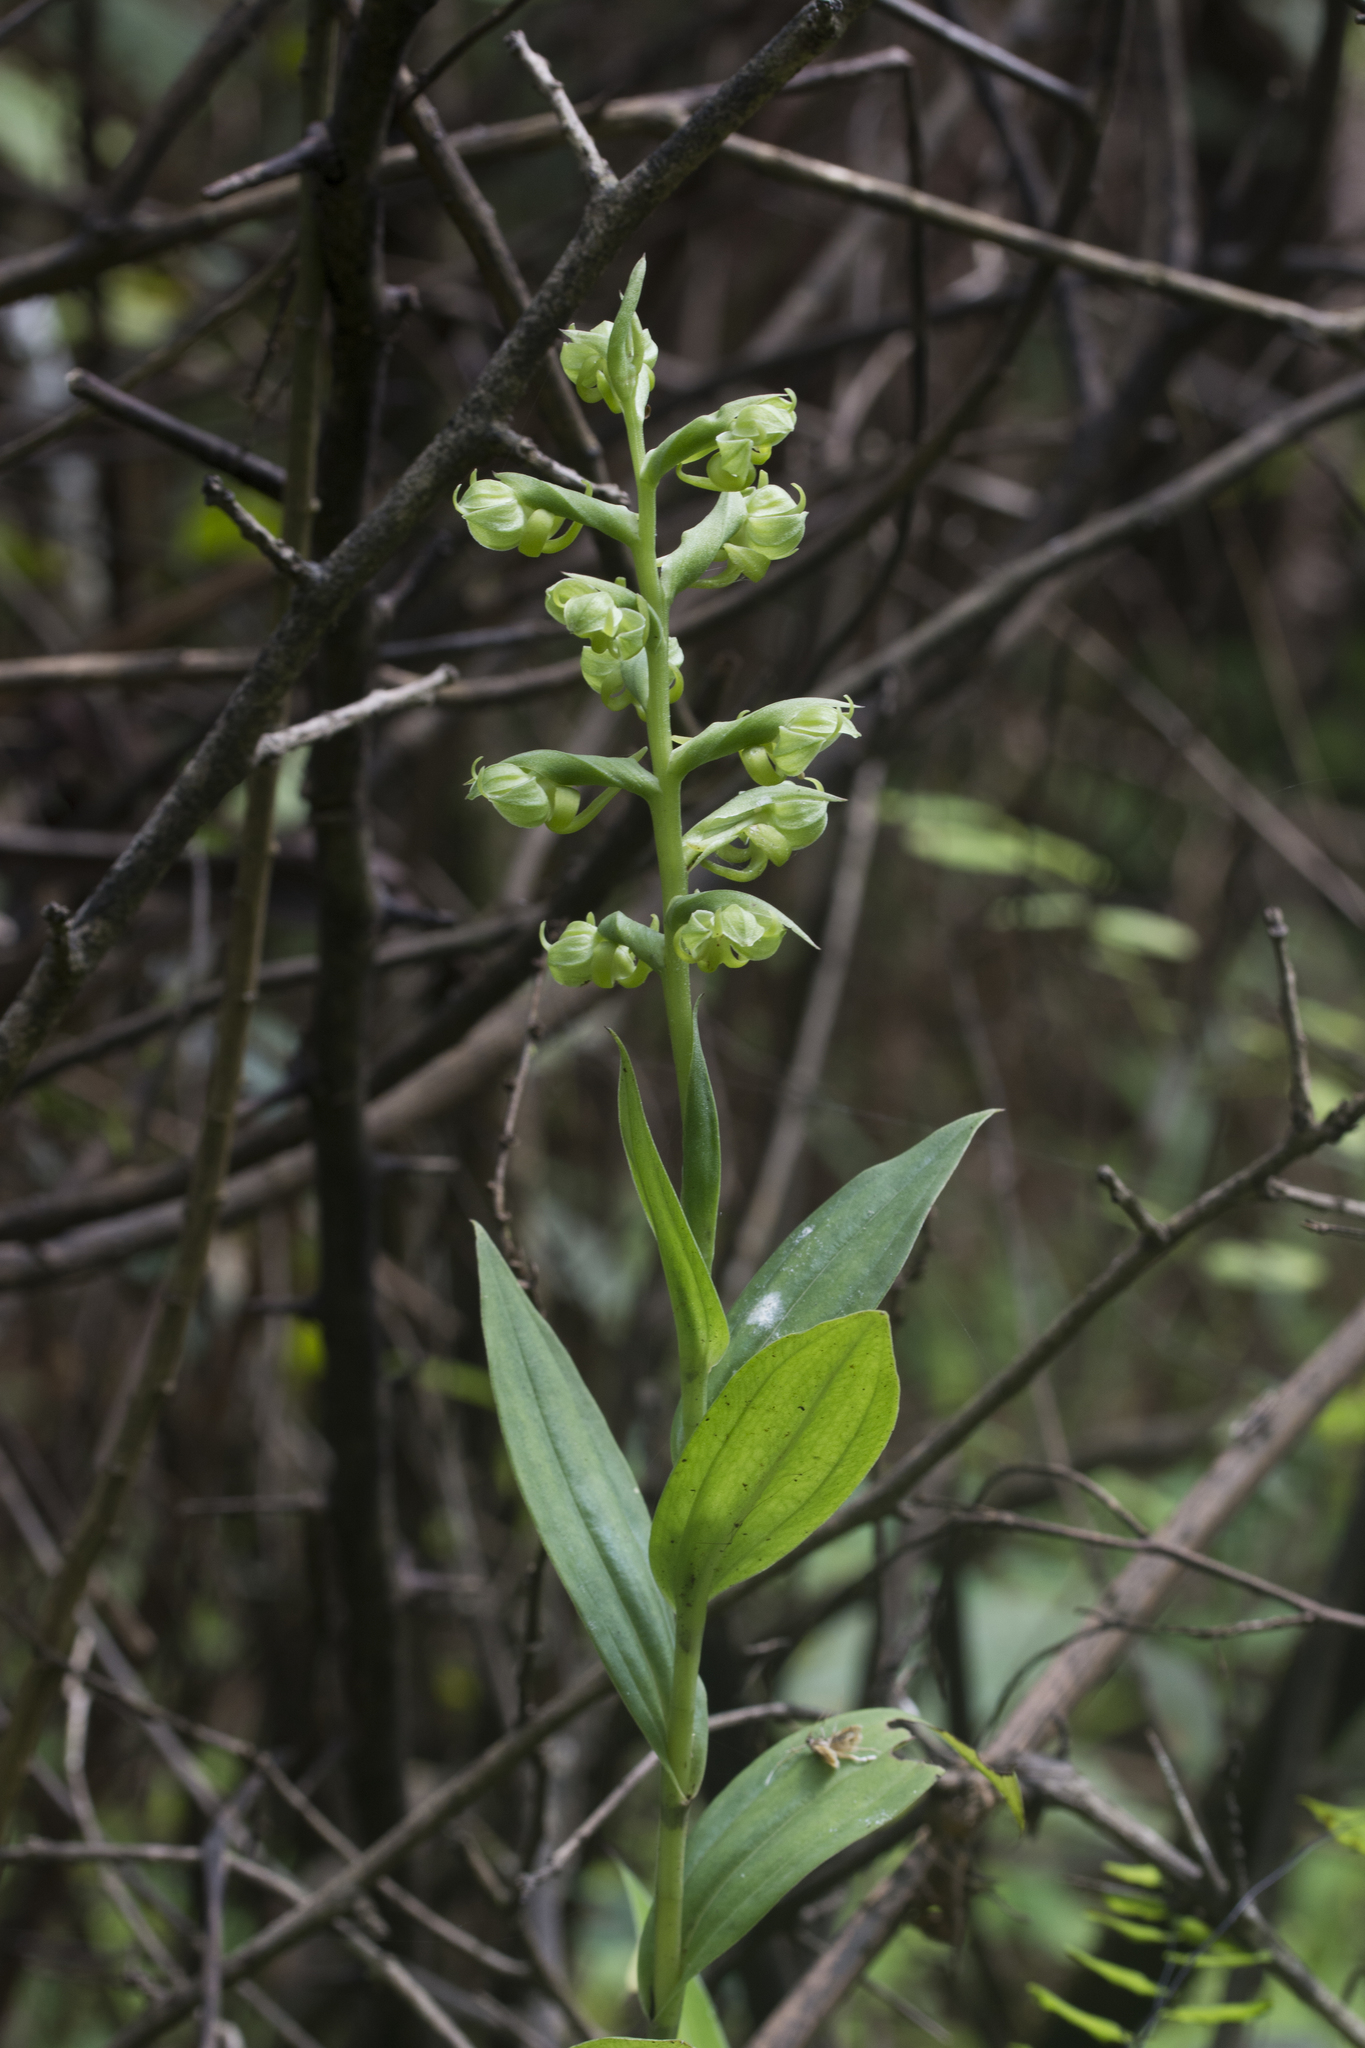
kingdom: Plantae
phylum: Tracheophyta
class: Liliopsida
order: Asparagales
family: Orchidaceae
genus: Habenaria
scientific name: Habenaria digitata
